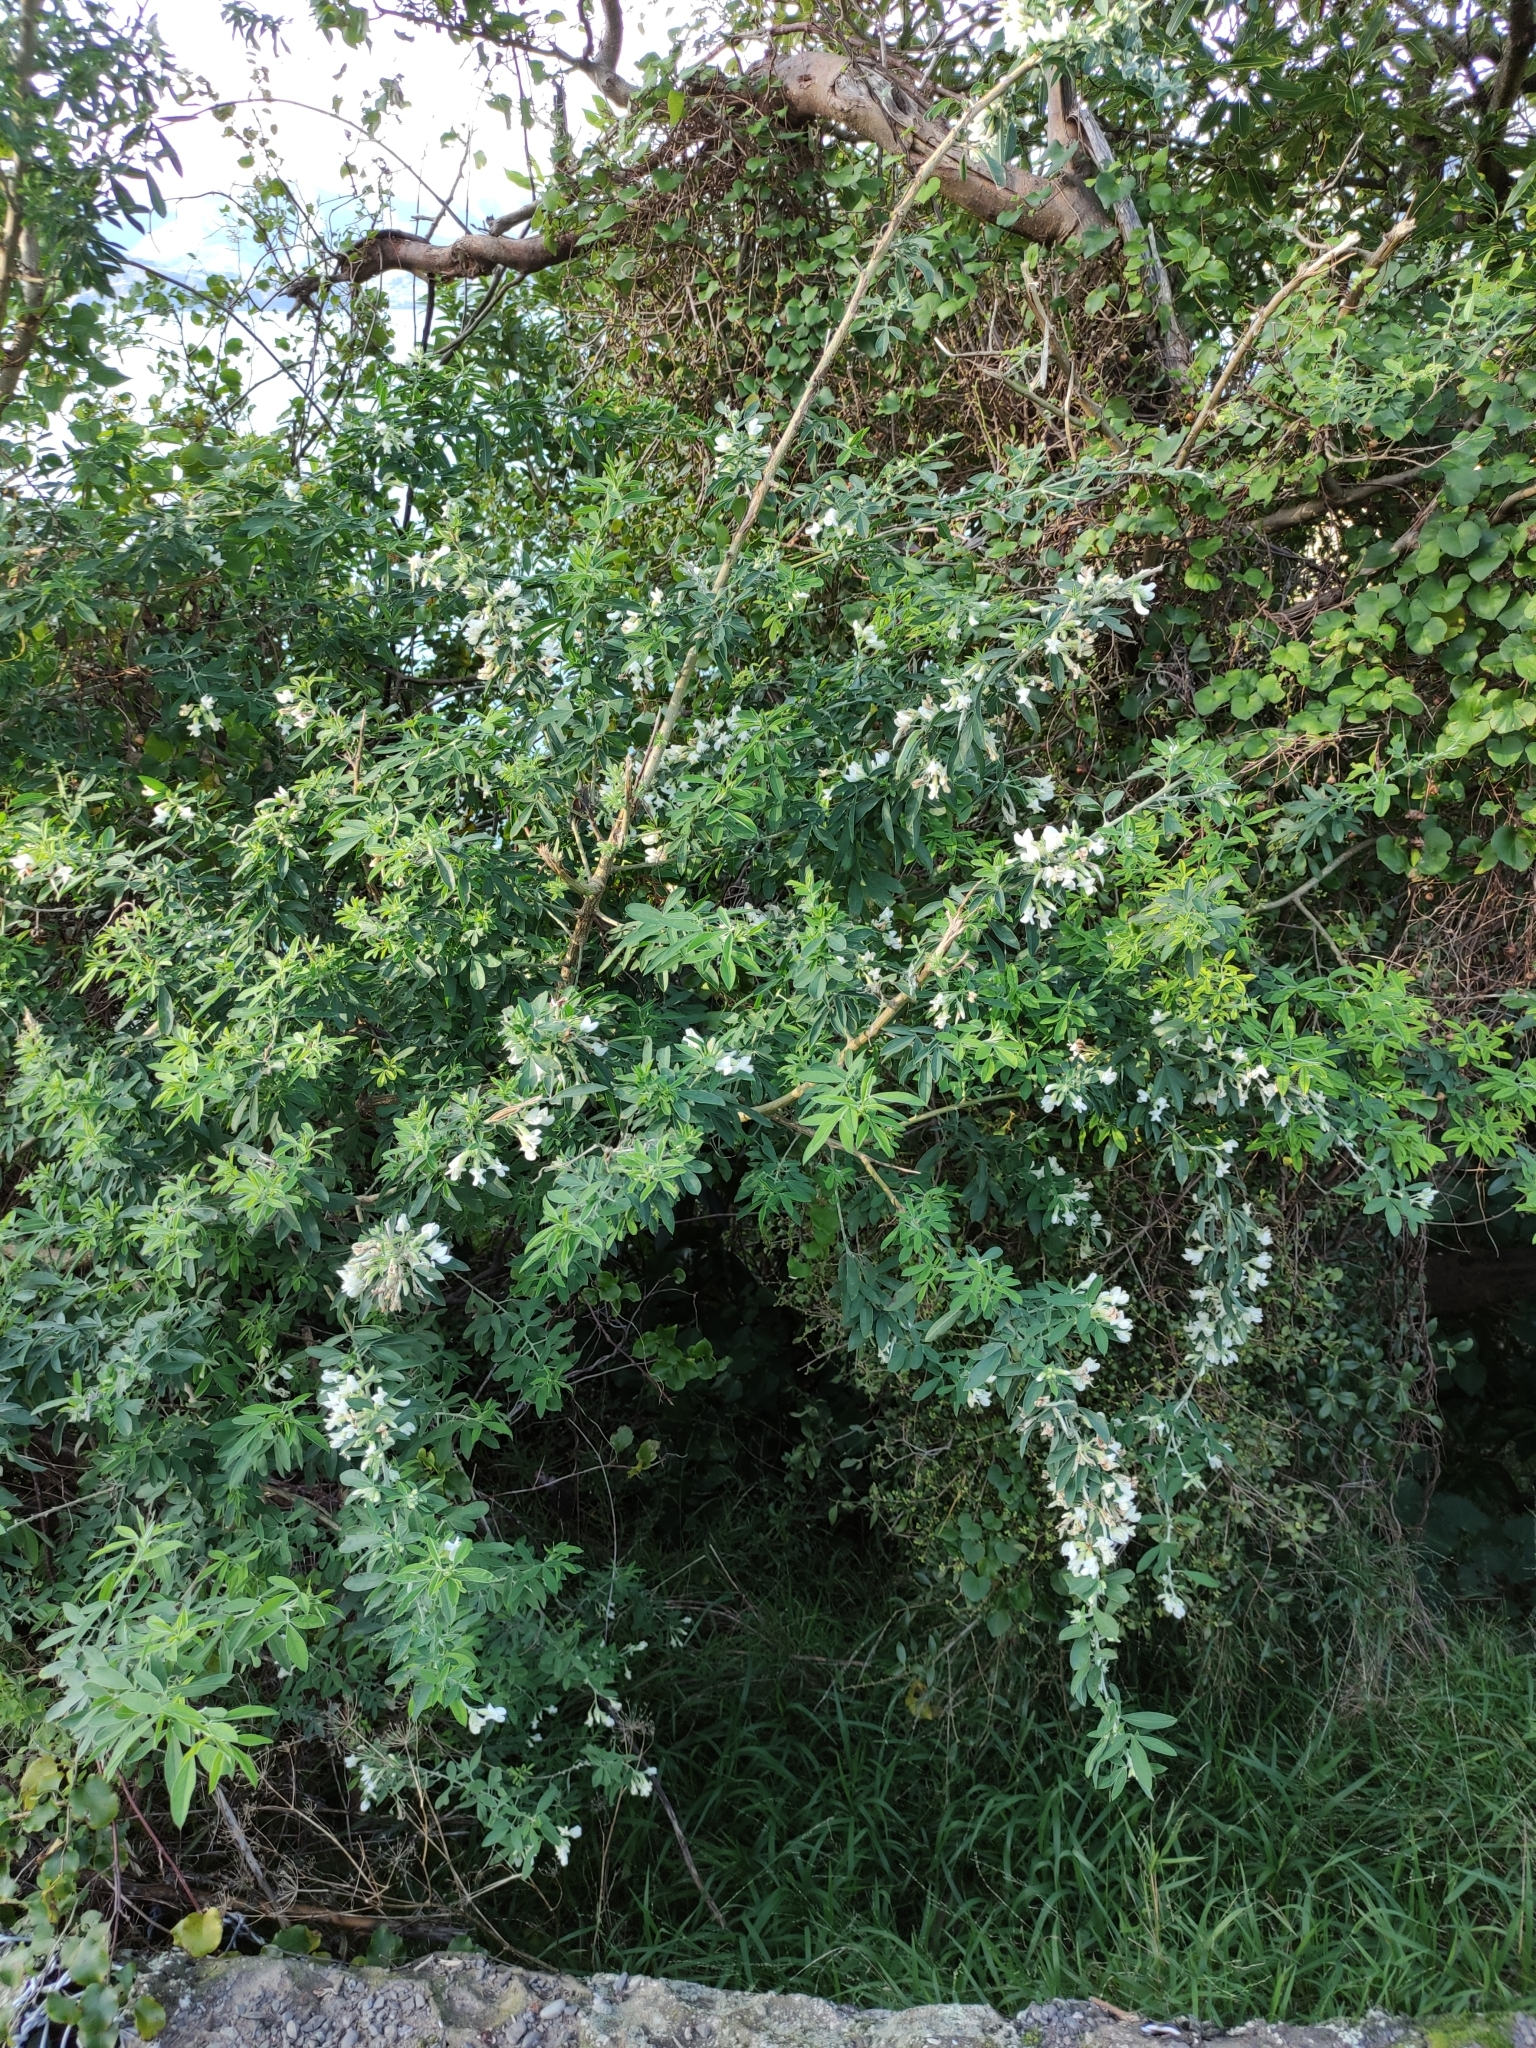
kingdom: Plantae
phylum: Tracheophyta
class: Magnoliopsida
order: Fabales
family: Fabaceae
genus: Chamaecytisus
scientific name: Chamaecytisus prolifer
